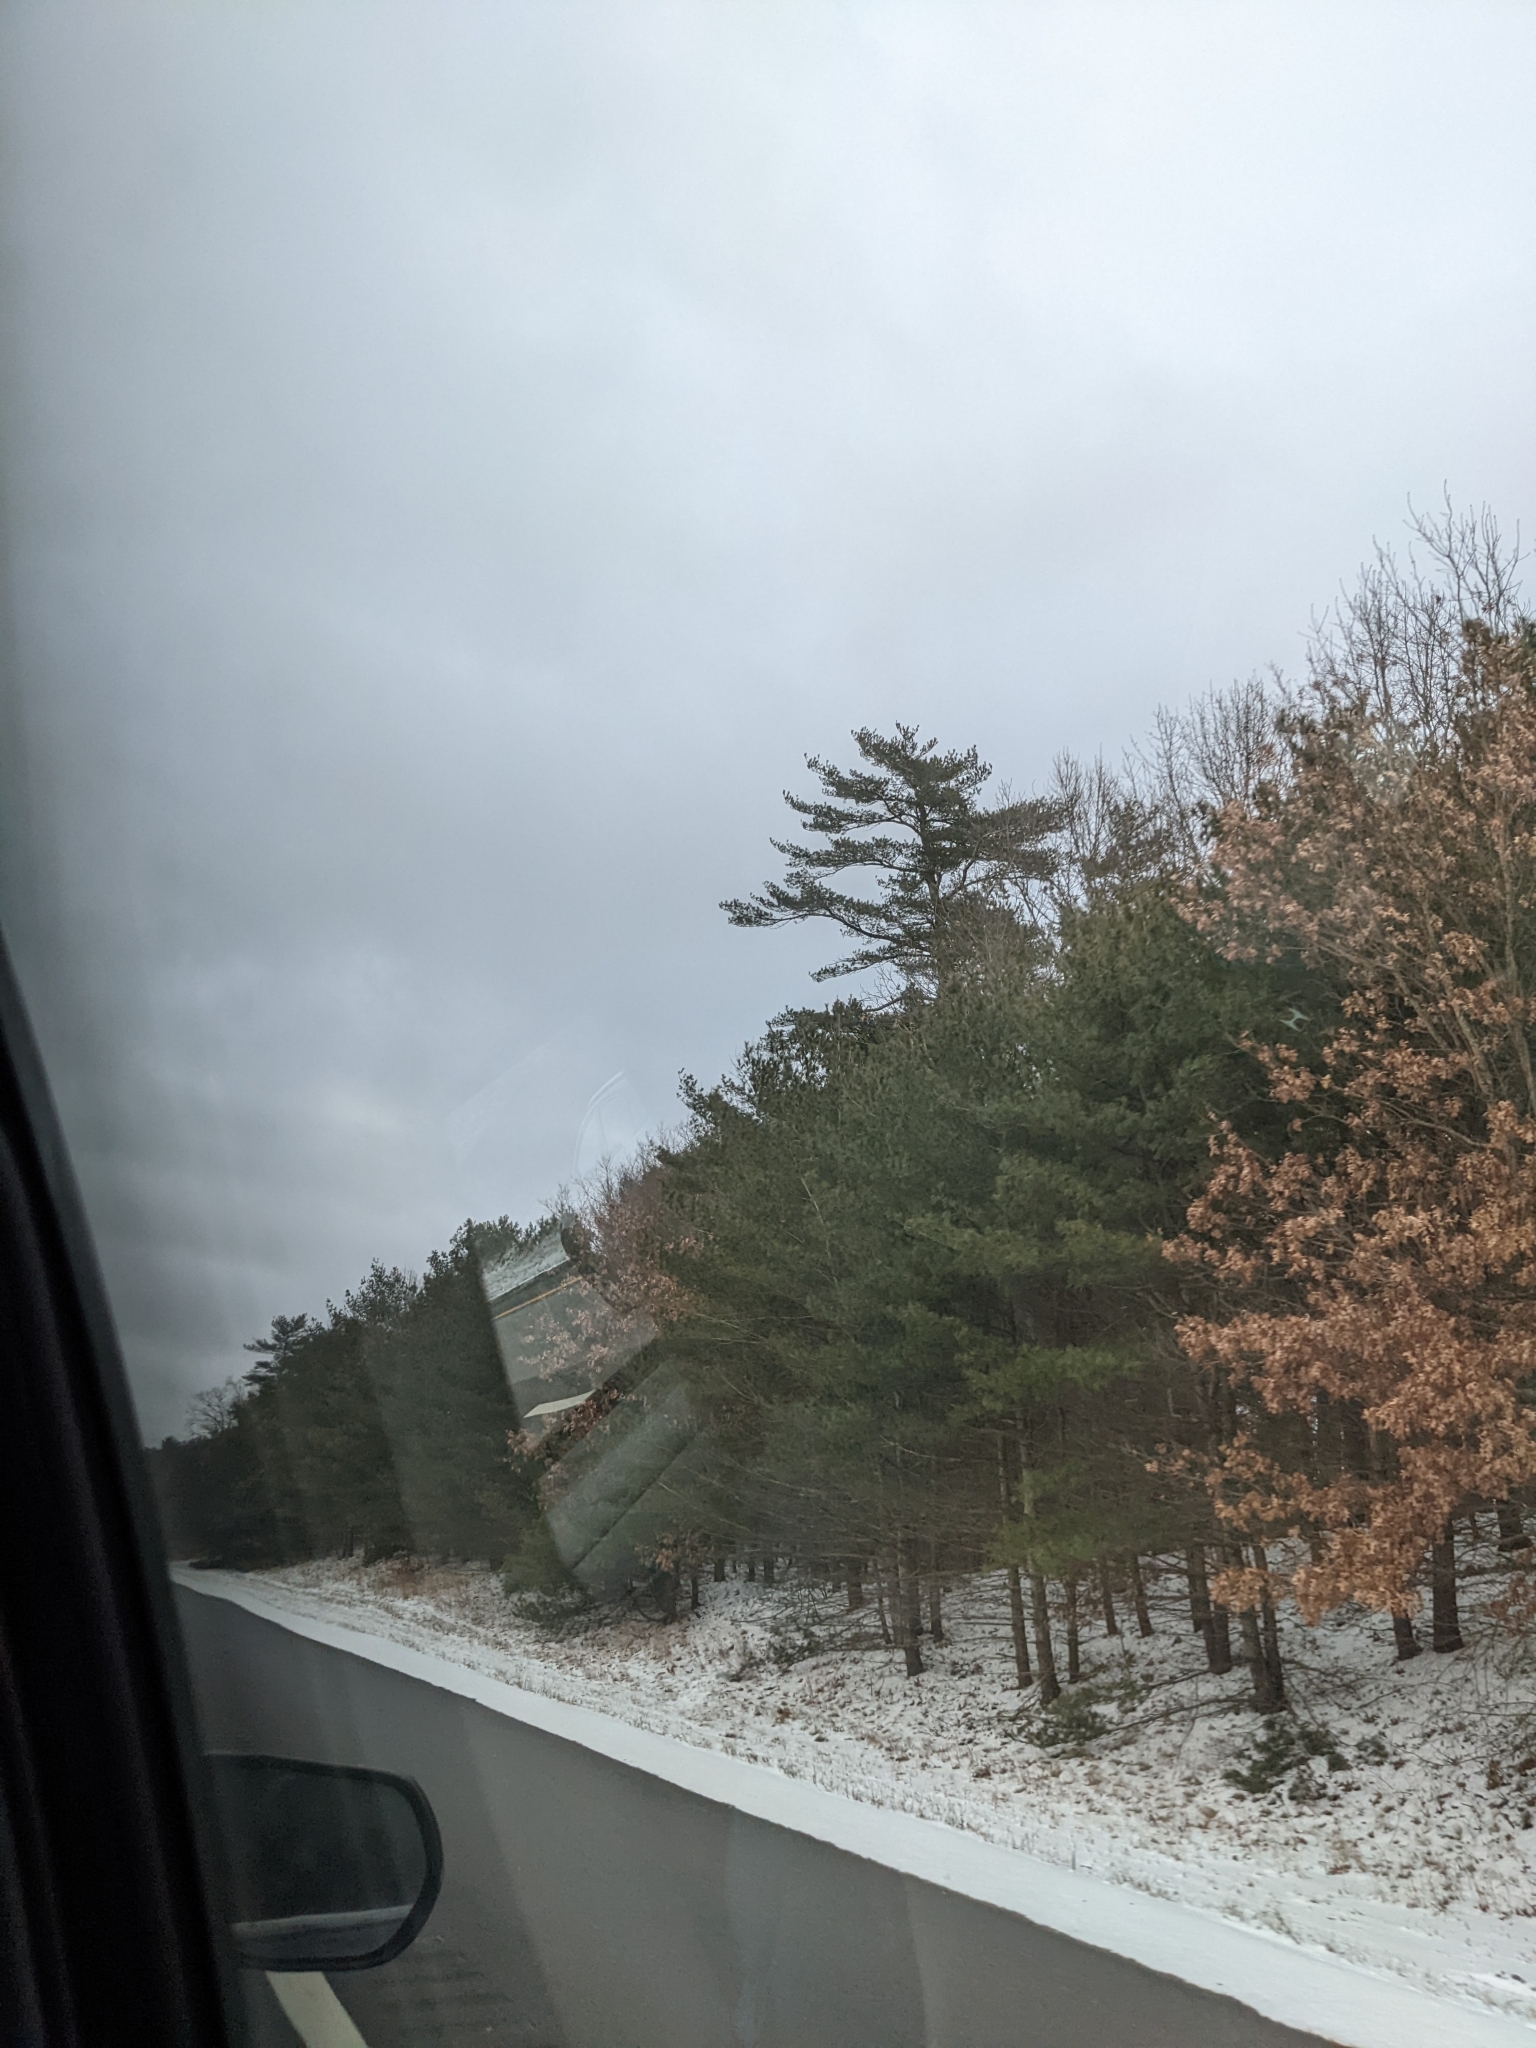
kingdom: Plantae
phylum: Tracheophyta
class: Pinopsida
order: Pinales
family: Pinaceae
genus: Pinus
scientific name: Pinus strobus
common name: Weymouth pine
